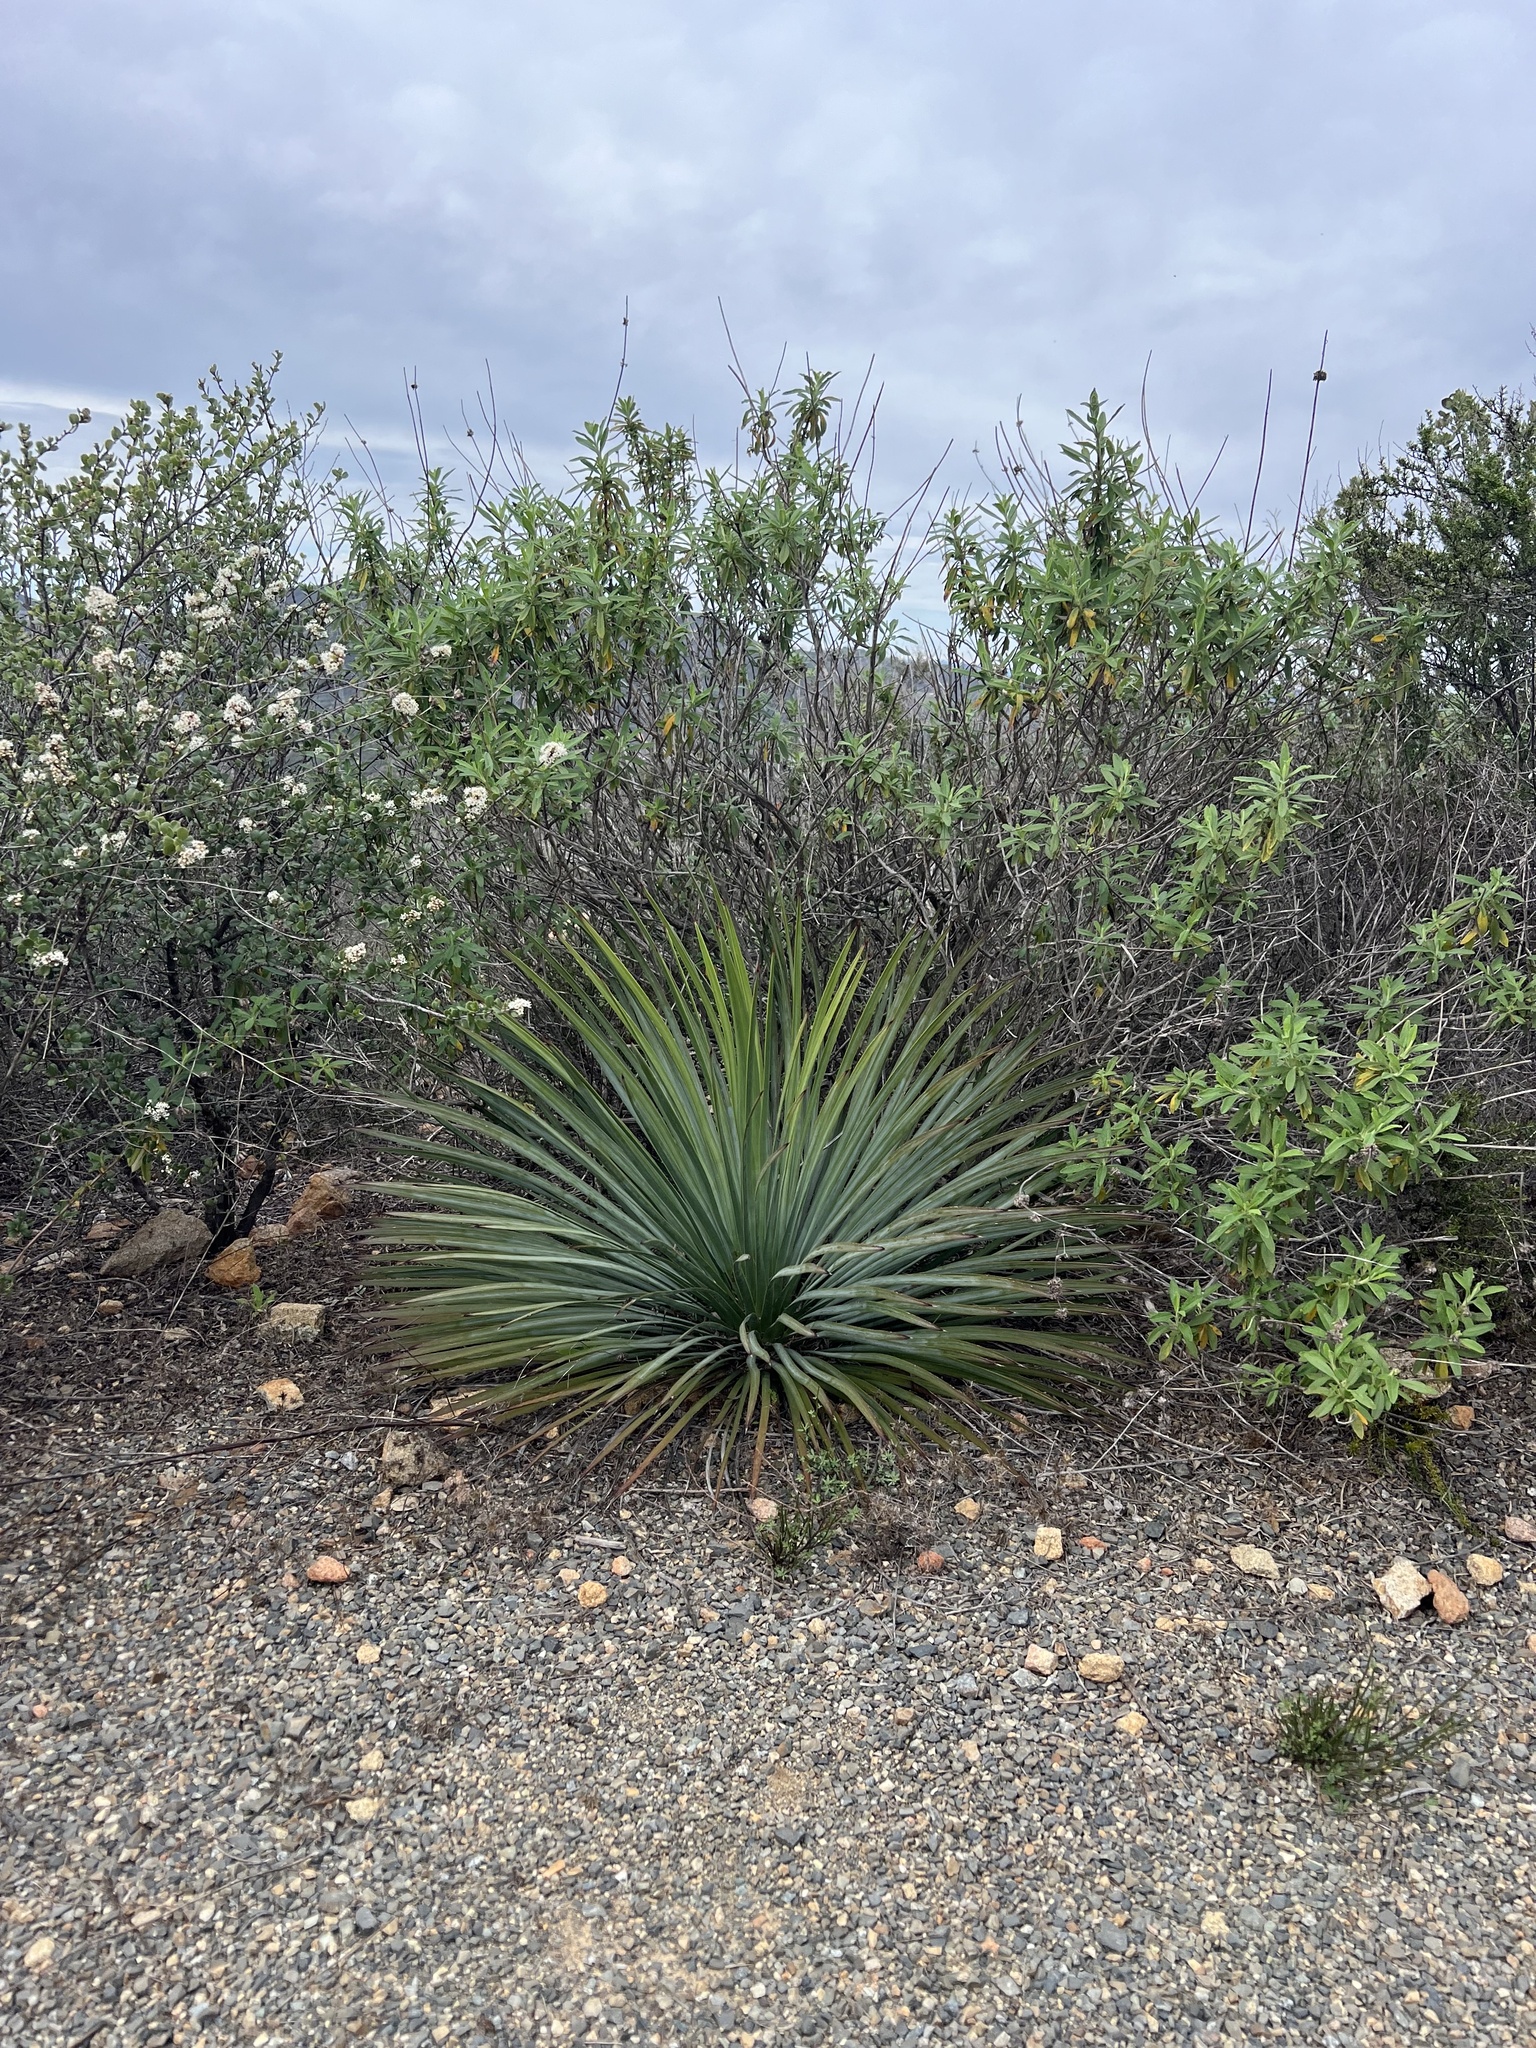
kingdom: Plantae
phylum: Tracheophyta
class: Liliopsida
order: Asparagales
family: Asparagaceae
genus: Hesperoyucca
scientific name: Hesperoyucca whipplei
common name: Our lord's-candle
